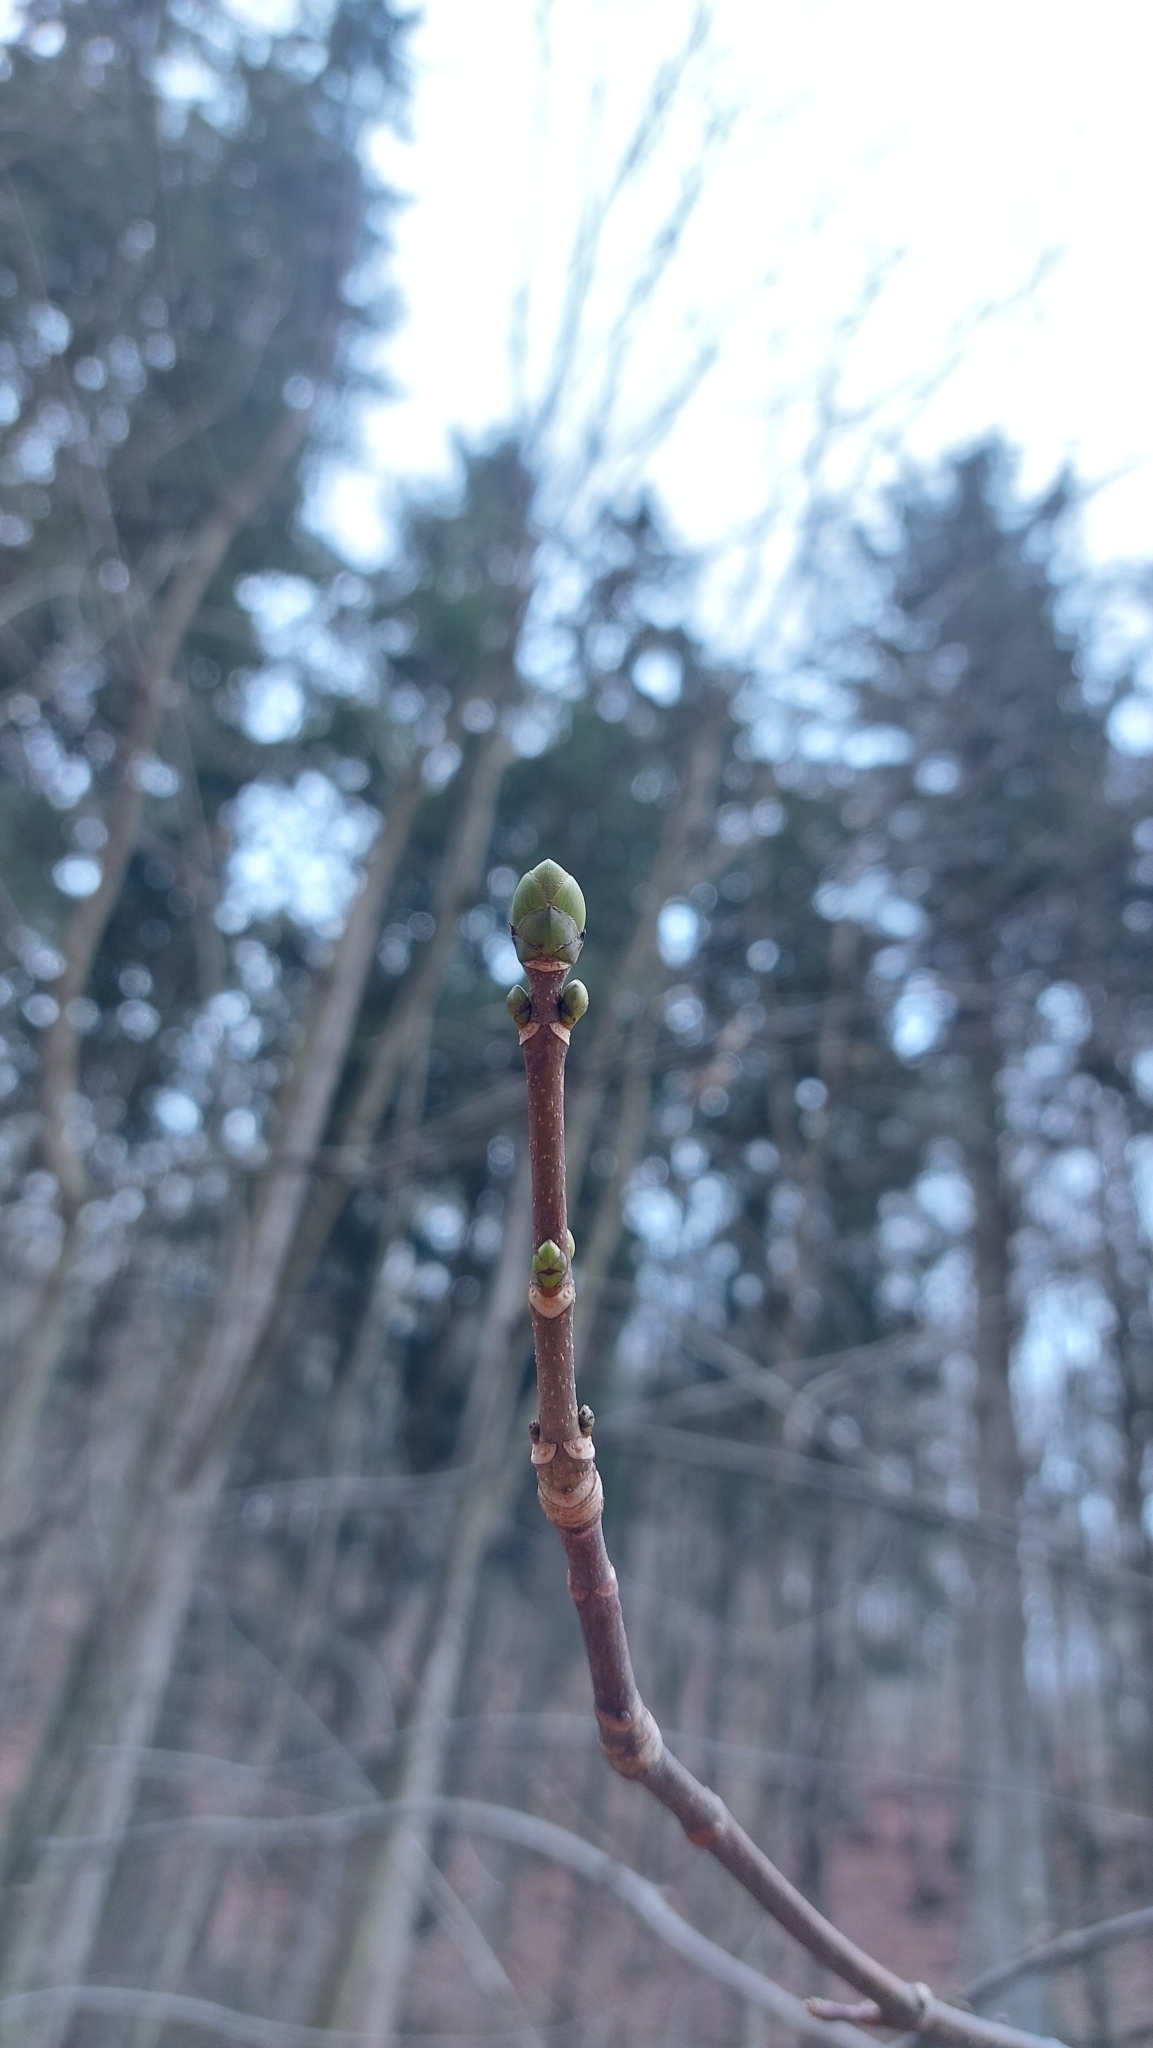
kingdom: Plantae
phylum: Tracheophyta
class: Magnoliopsida
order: Sapindales
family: Sapindaceae
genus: Acer
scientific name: Acer pseudoplatanus
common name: Sycamore
